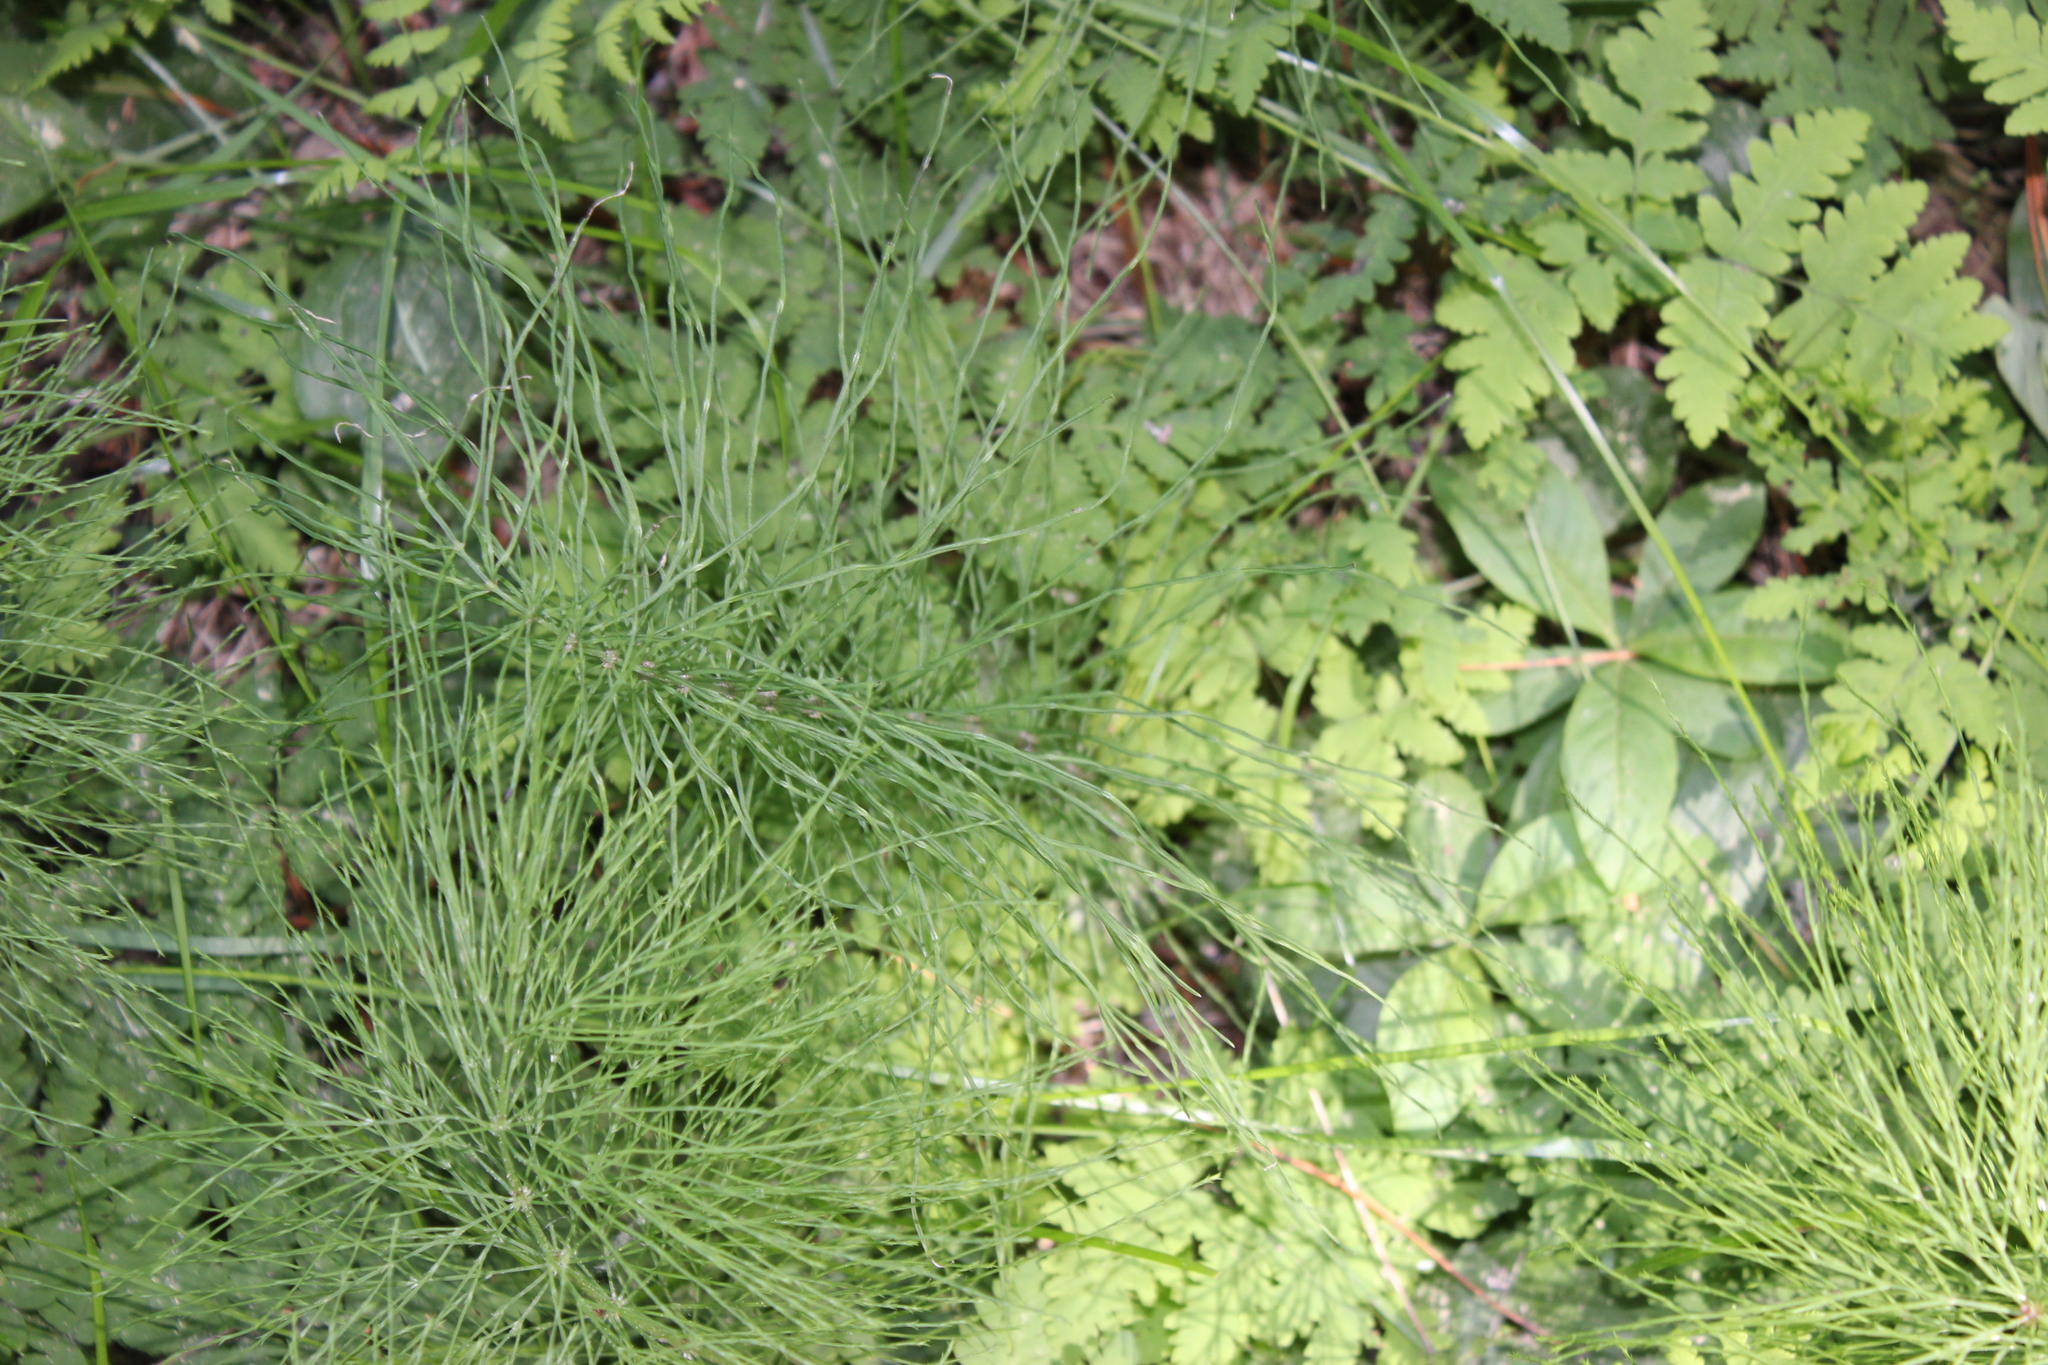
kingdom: Plantae
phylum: Tracheophyta
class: Polypodiopsida
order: Equisetales
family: Equisetaceae
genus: Equisetum
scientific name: Equisetum sylvaticum
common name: Wood horsetail
